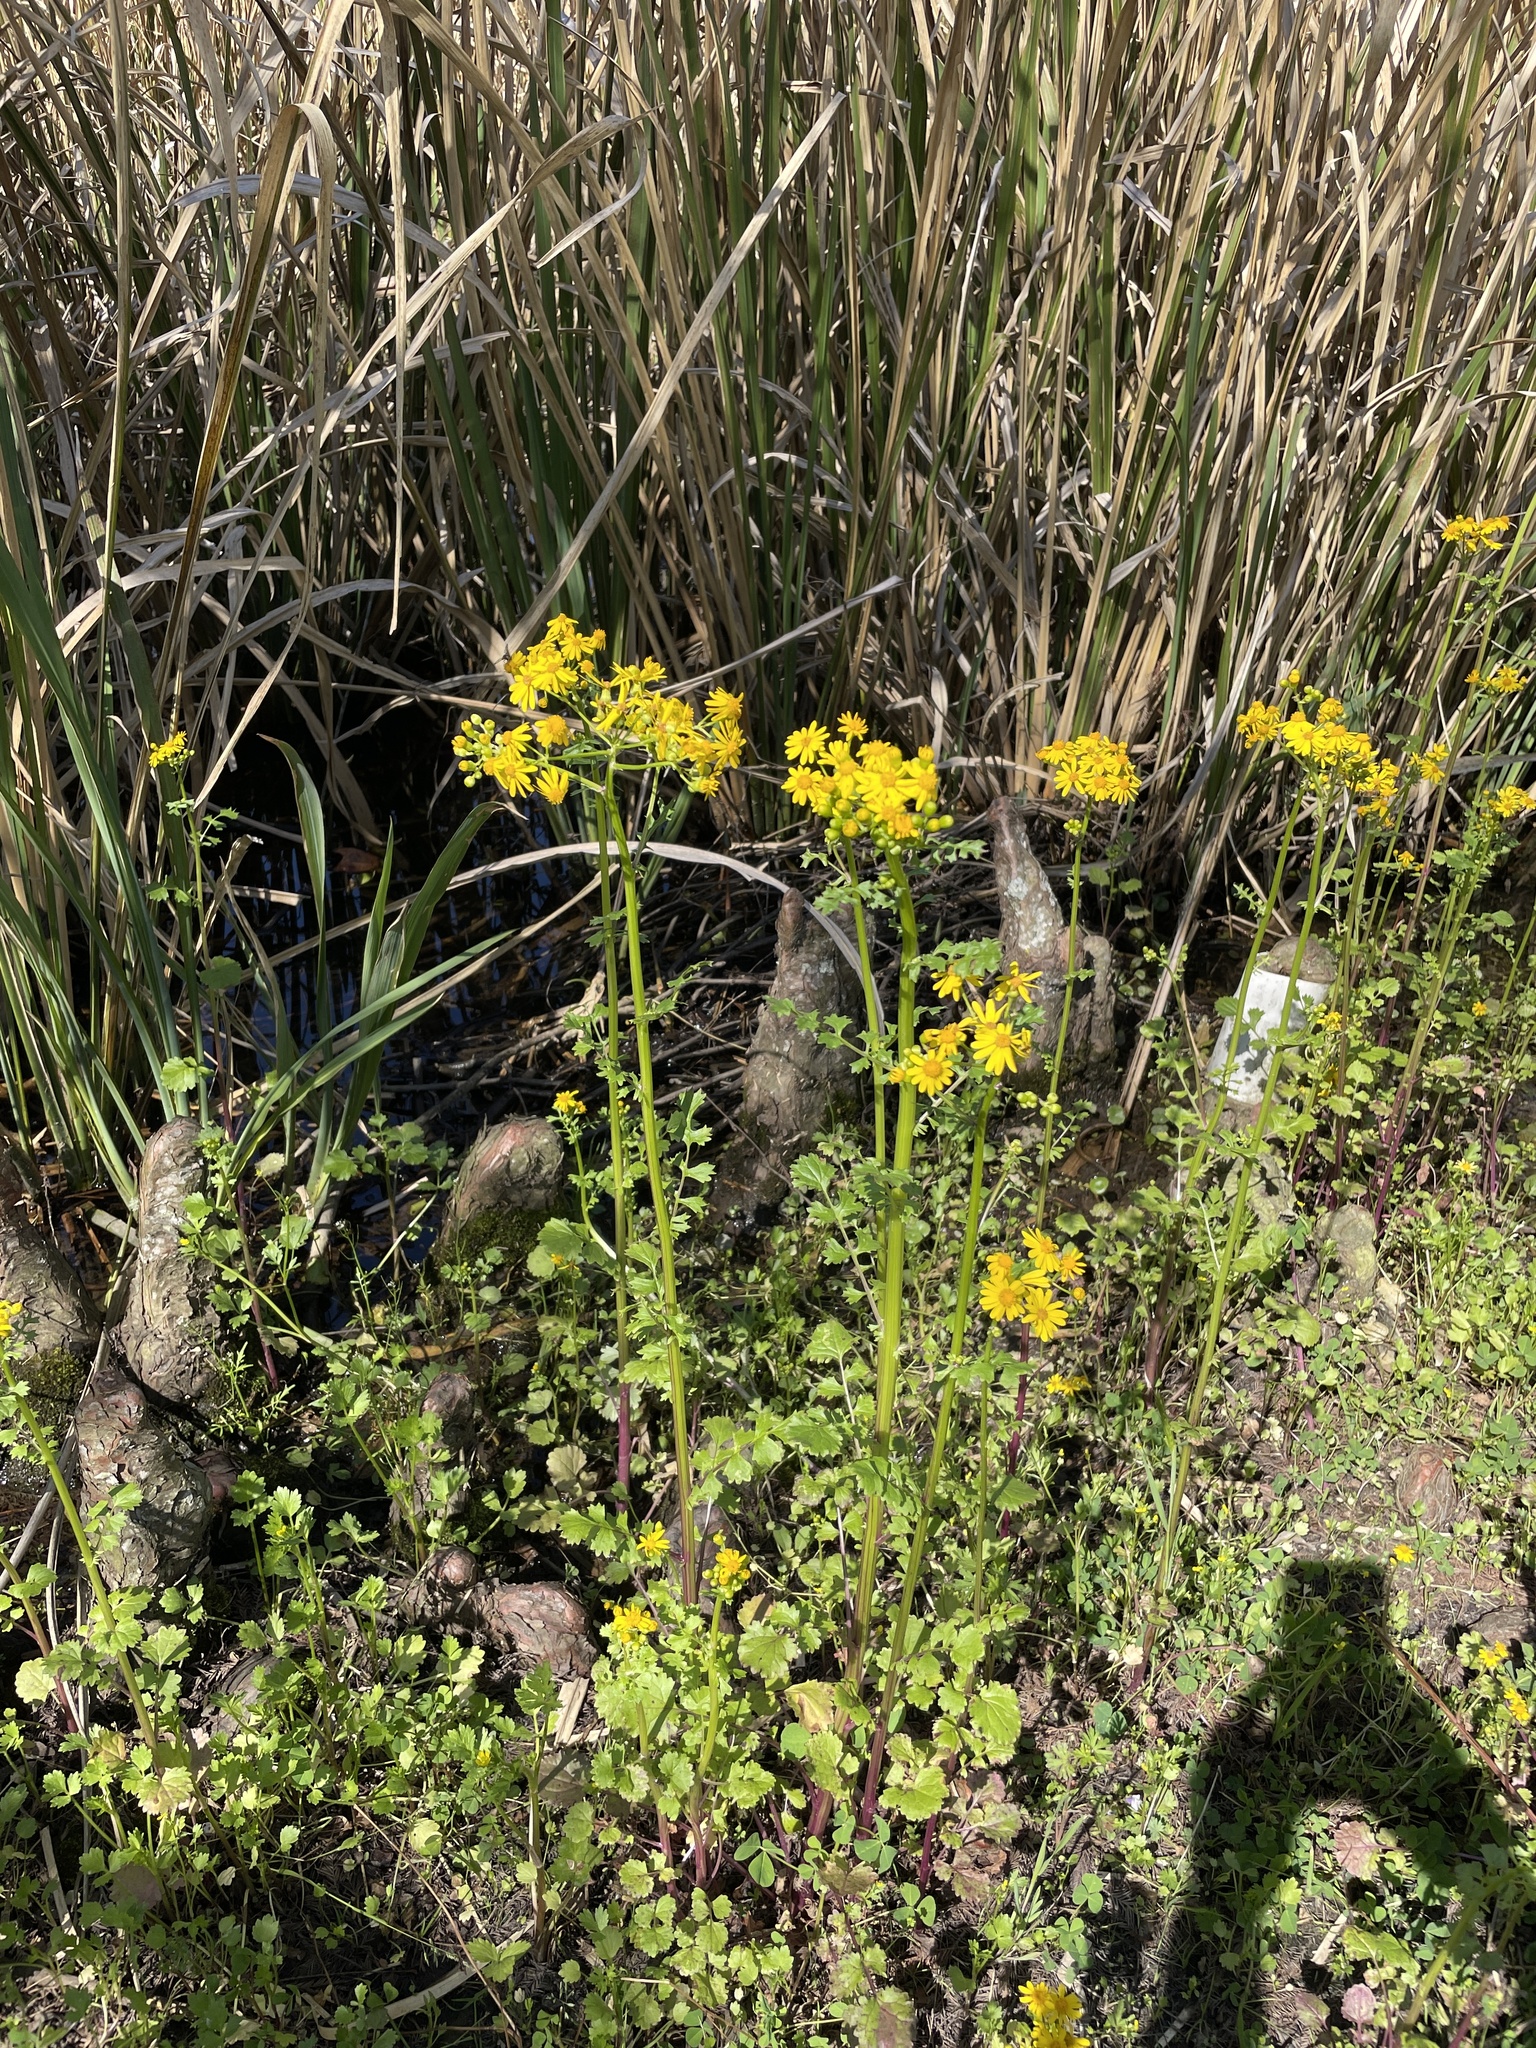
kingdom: Plantae
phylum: Tracheophyta
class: Magnoliopsida
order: Asterales
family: Asteraceae
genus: Packera
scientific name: Packera glabella
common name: Butterweed
